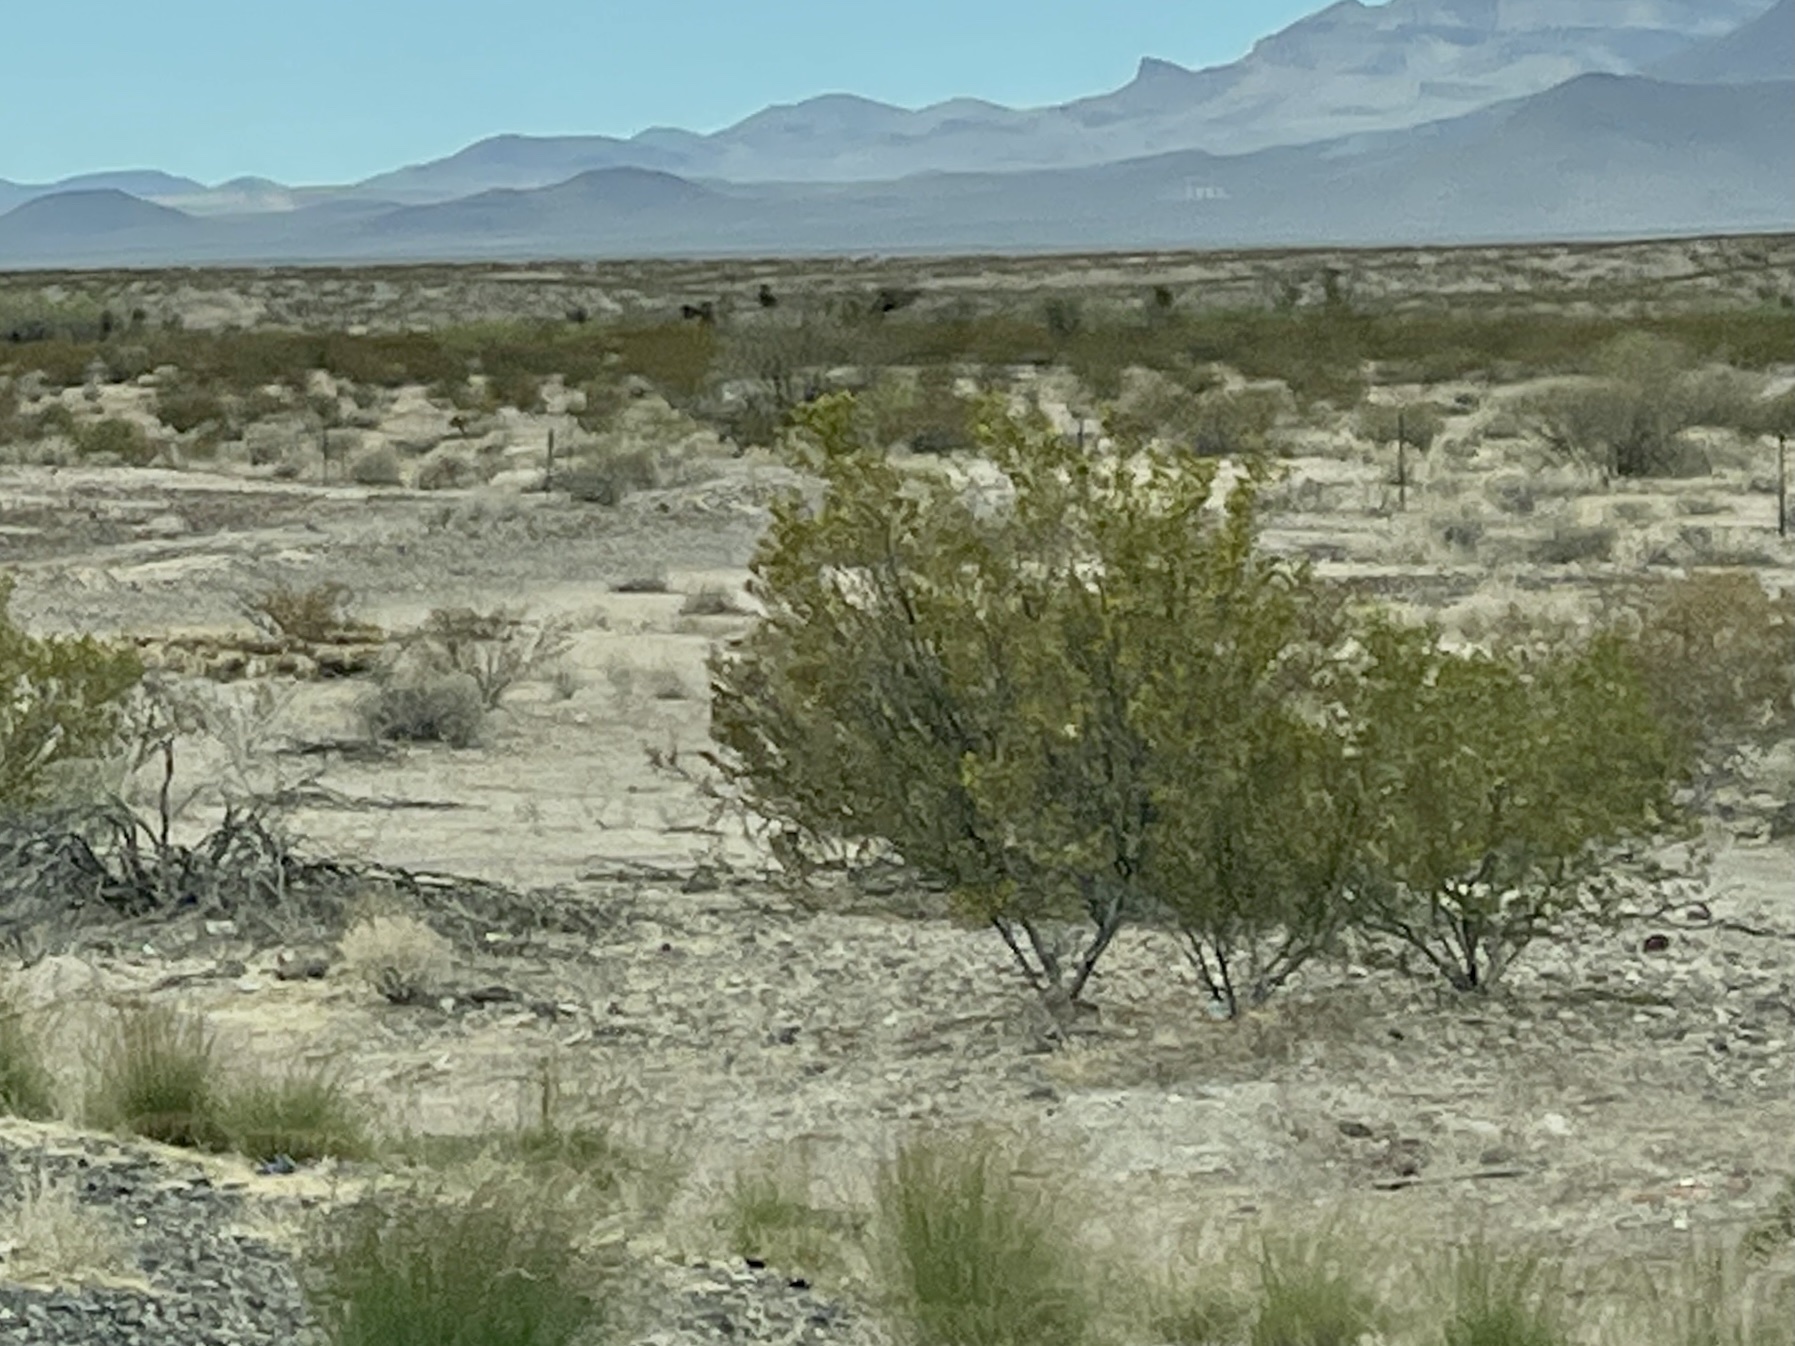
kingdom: Plantae
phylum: Tracheophyta
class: Magnoliopsida
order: Zygophyllales
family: Zygophyllaceae
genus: Larrea
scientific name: Larrea tridentata
